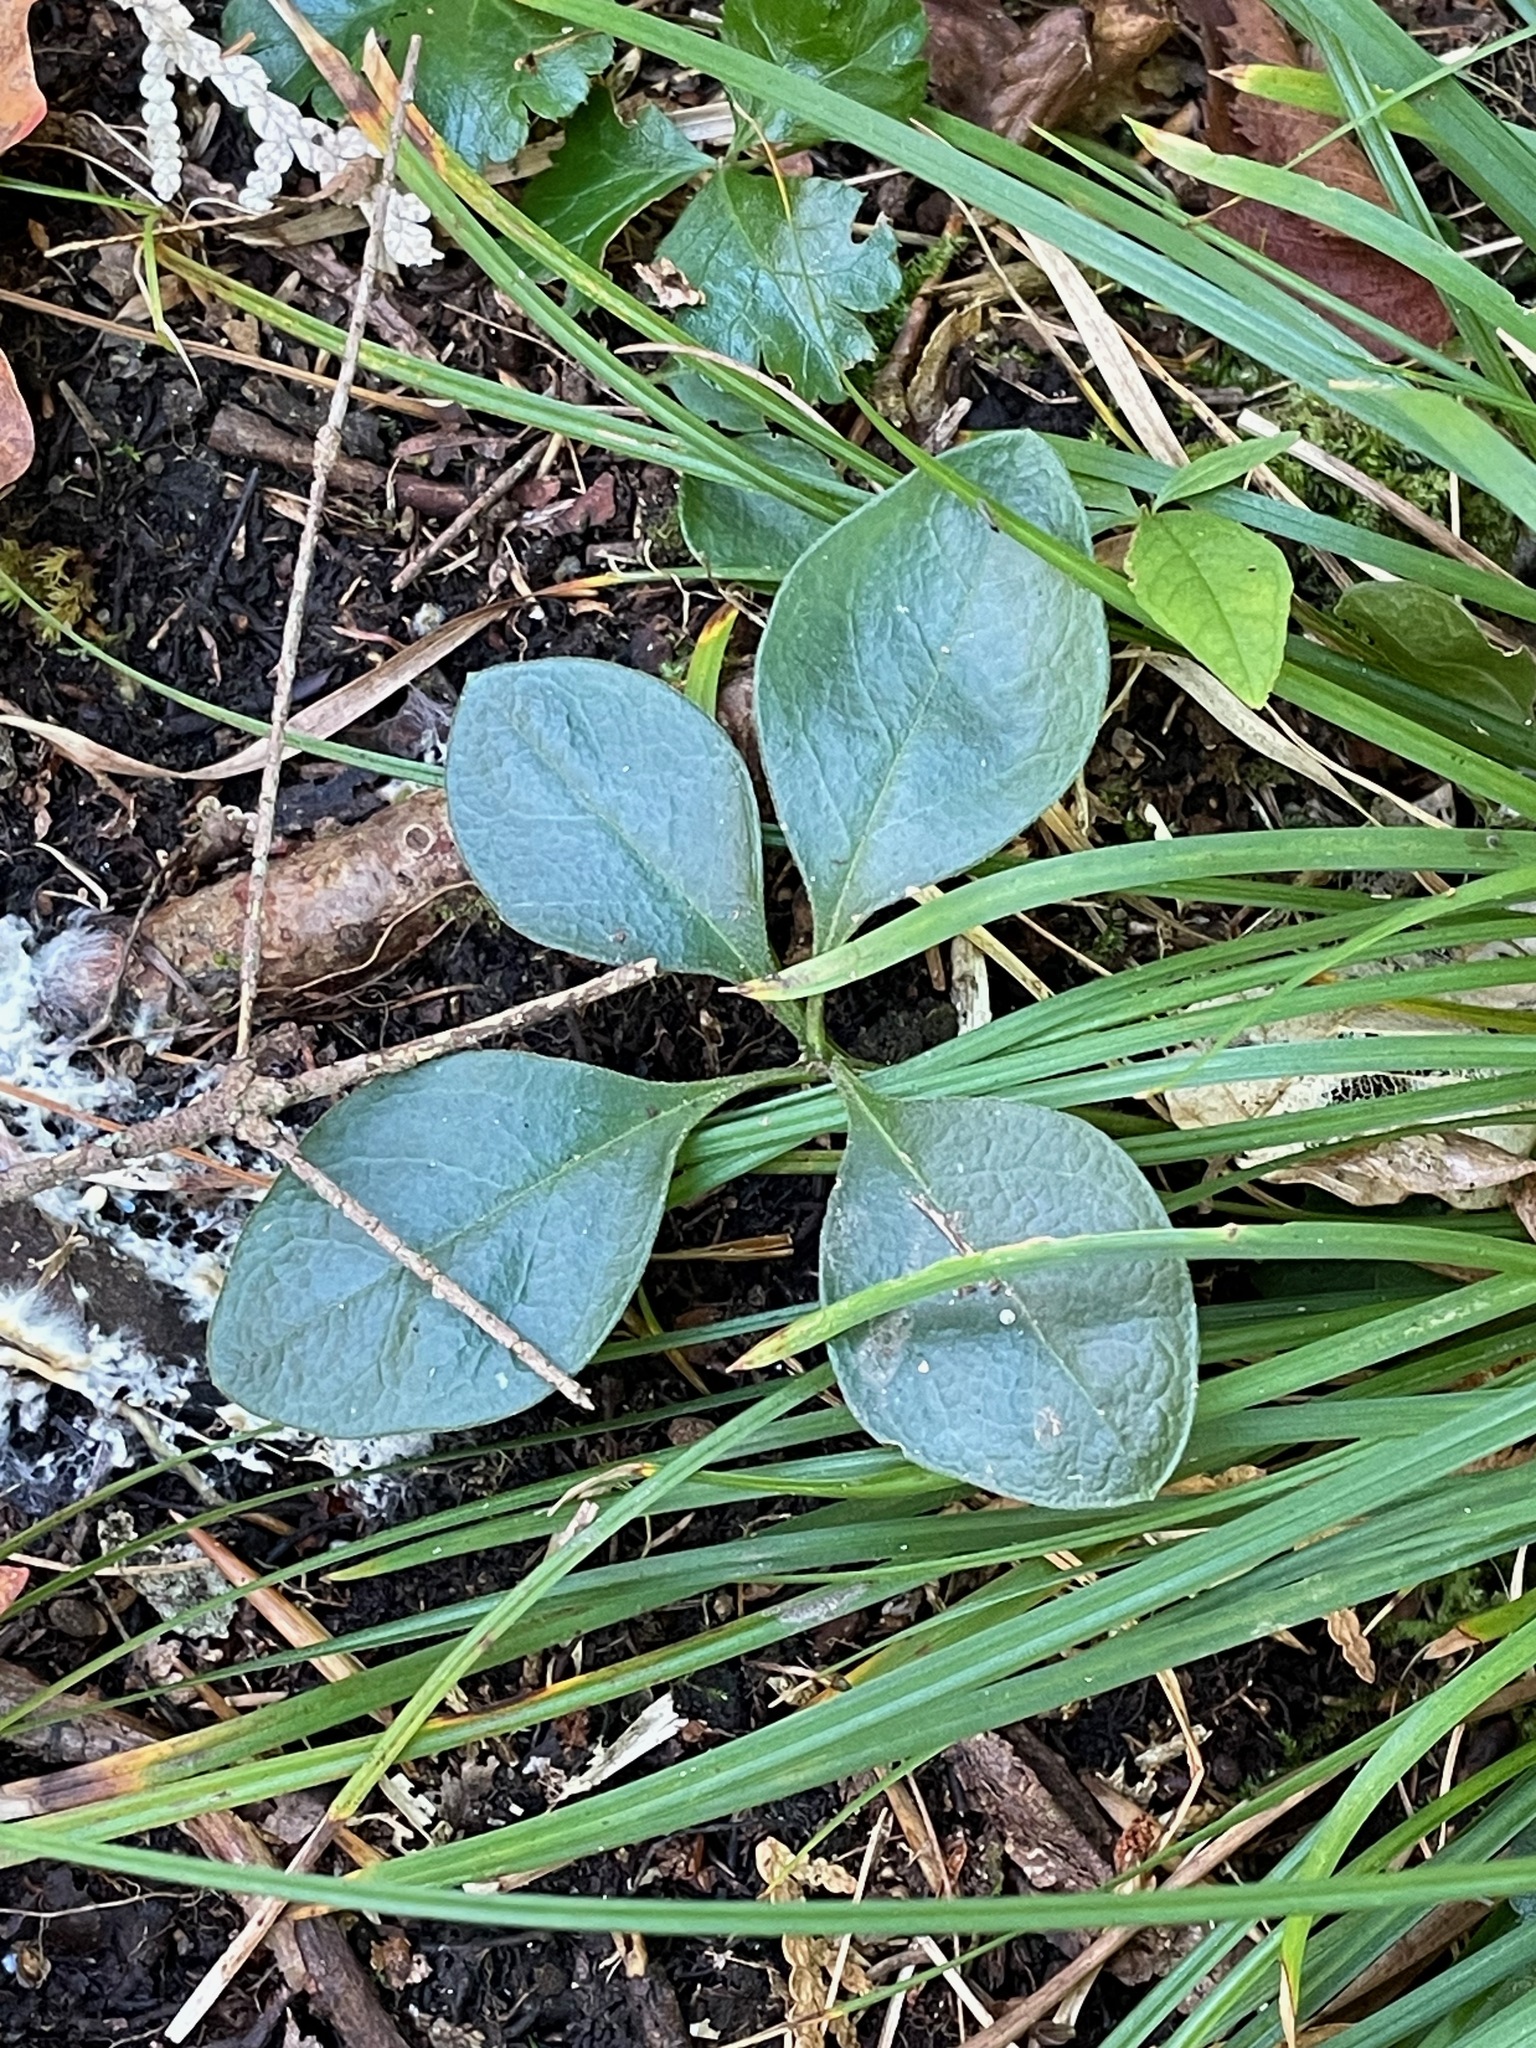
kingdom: Plantae
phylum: Tracheophyta
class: Magnoliopsida
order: Fabales
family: Polygalaceae
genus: Polygaloides
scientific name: Polygaloides paucifolia
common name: Bird-on-the-wing
